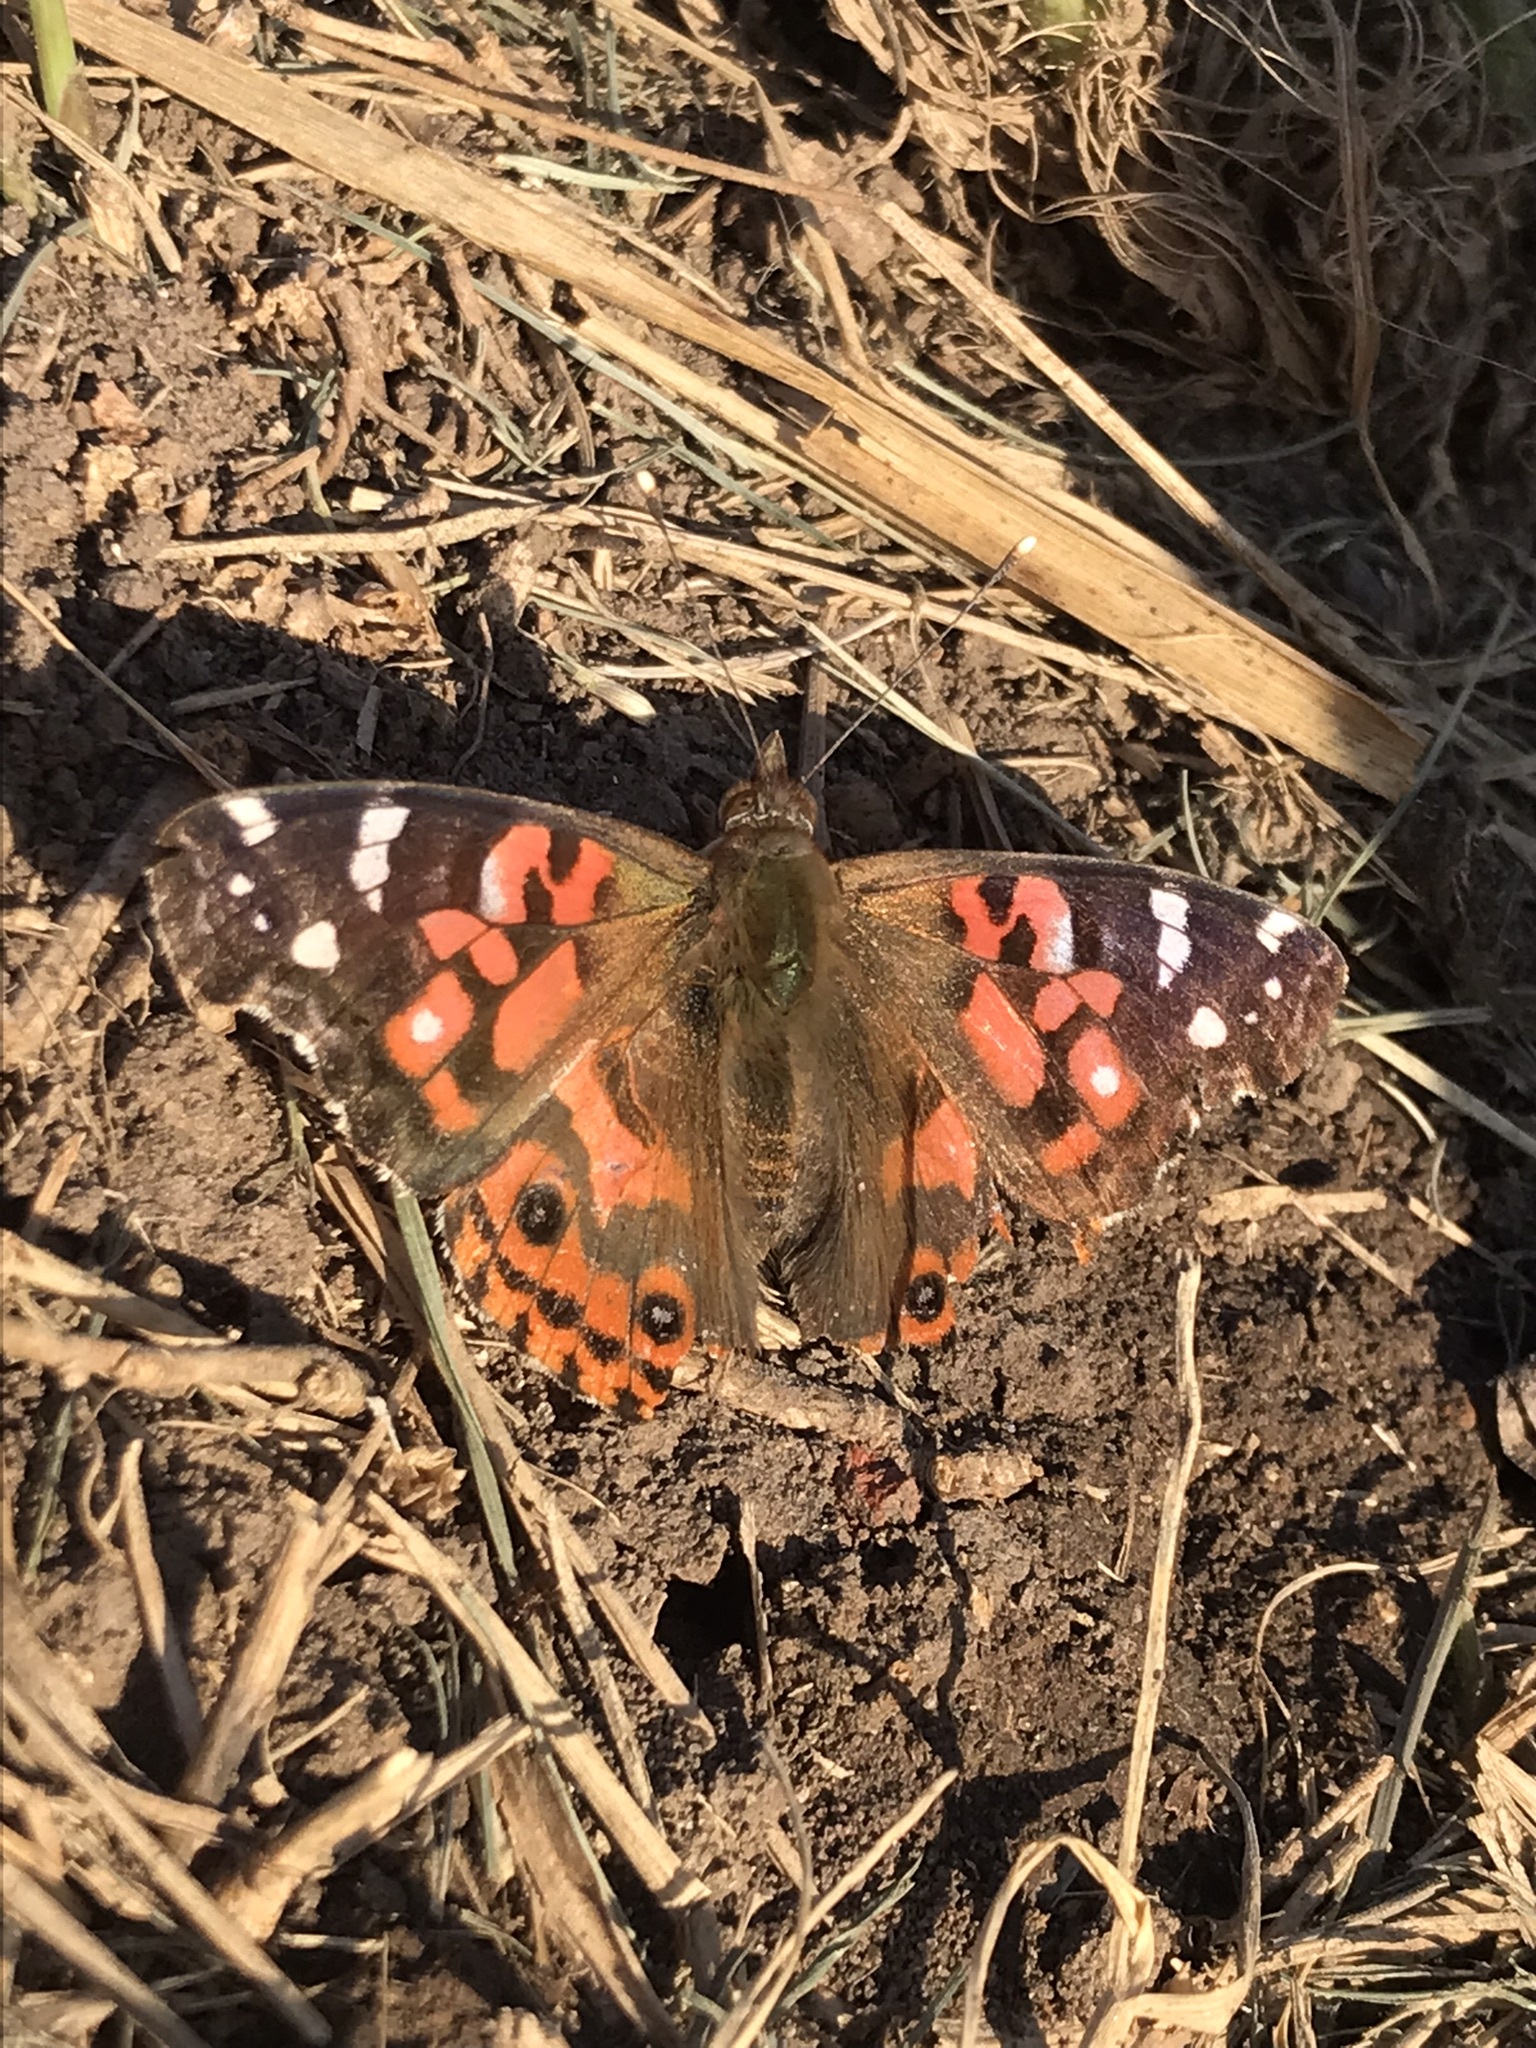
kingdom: Animalia
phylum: Arthropoda
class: Insecta
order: Lepidoptera
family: Nymphalidae
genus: Vanessa
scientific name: Vanessa braziliensis
